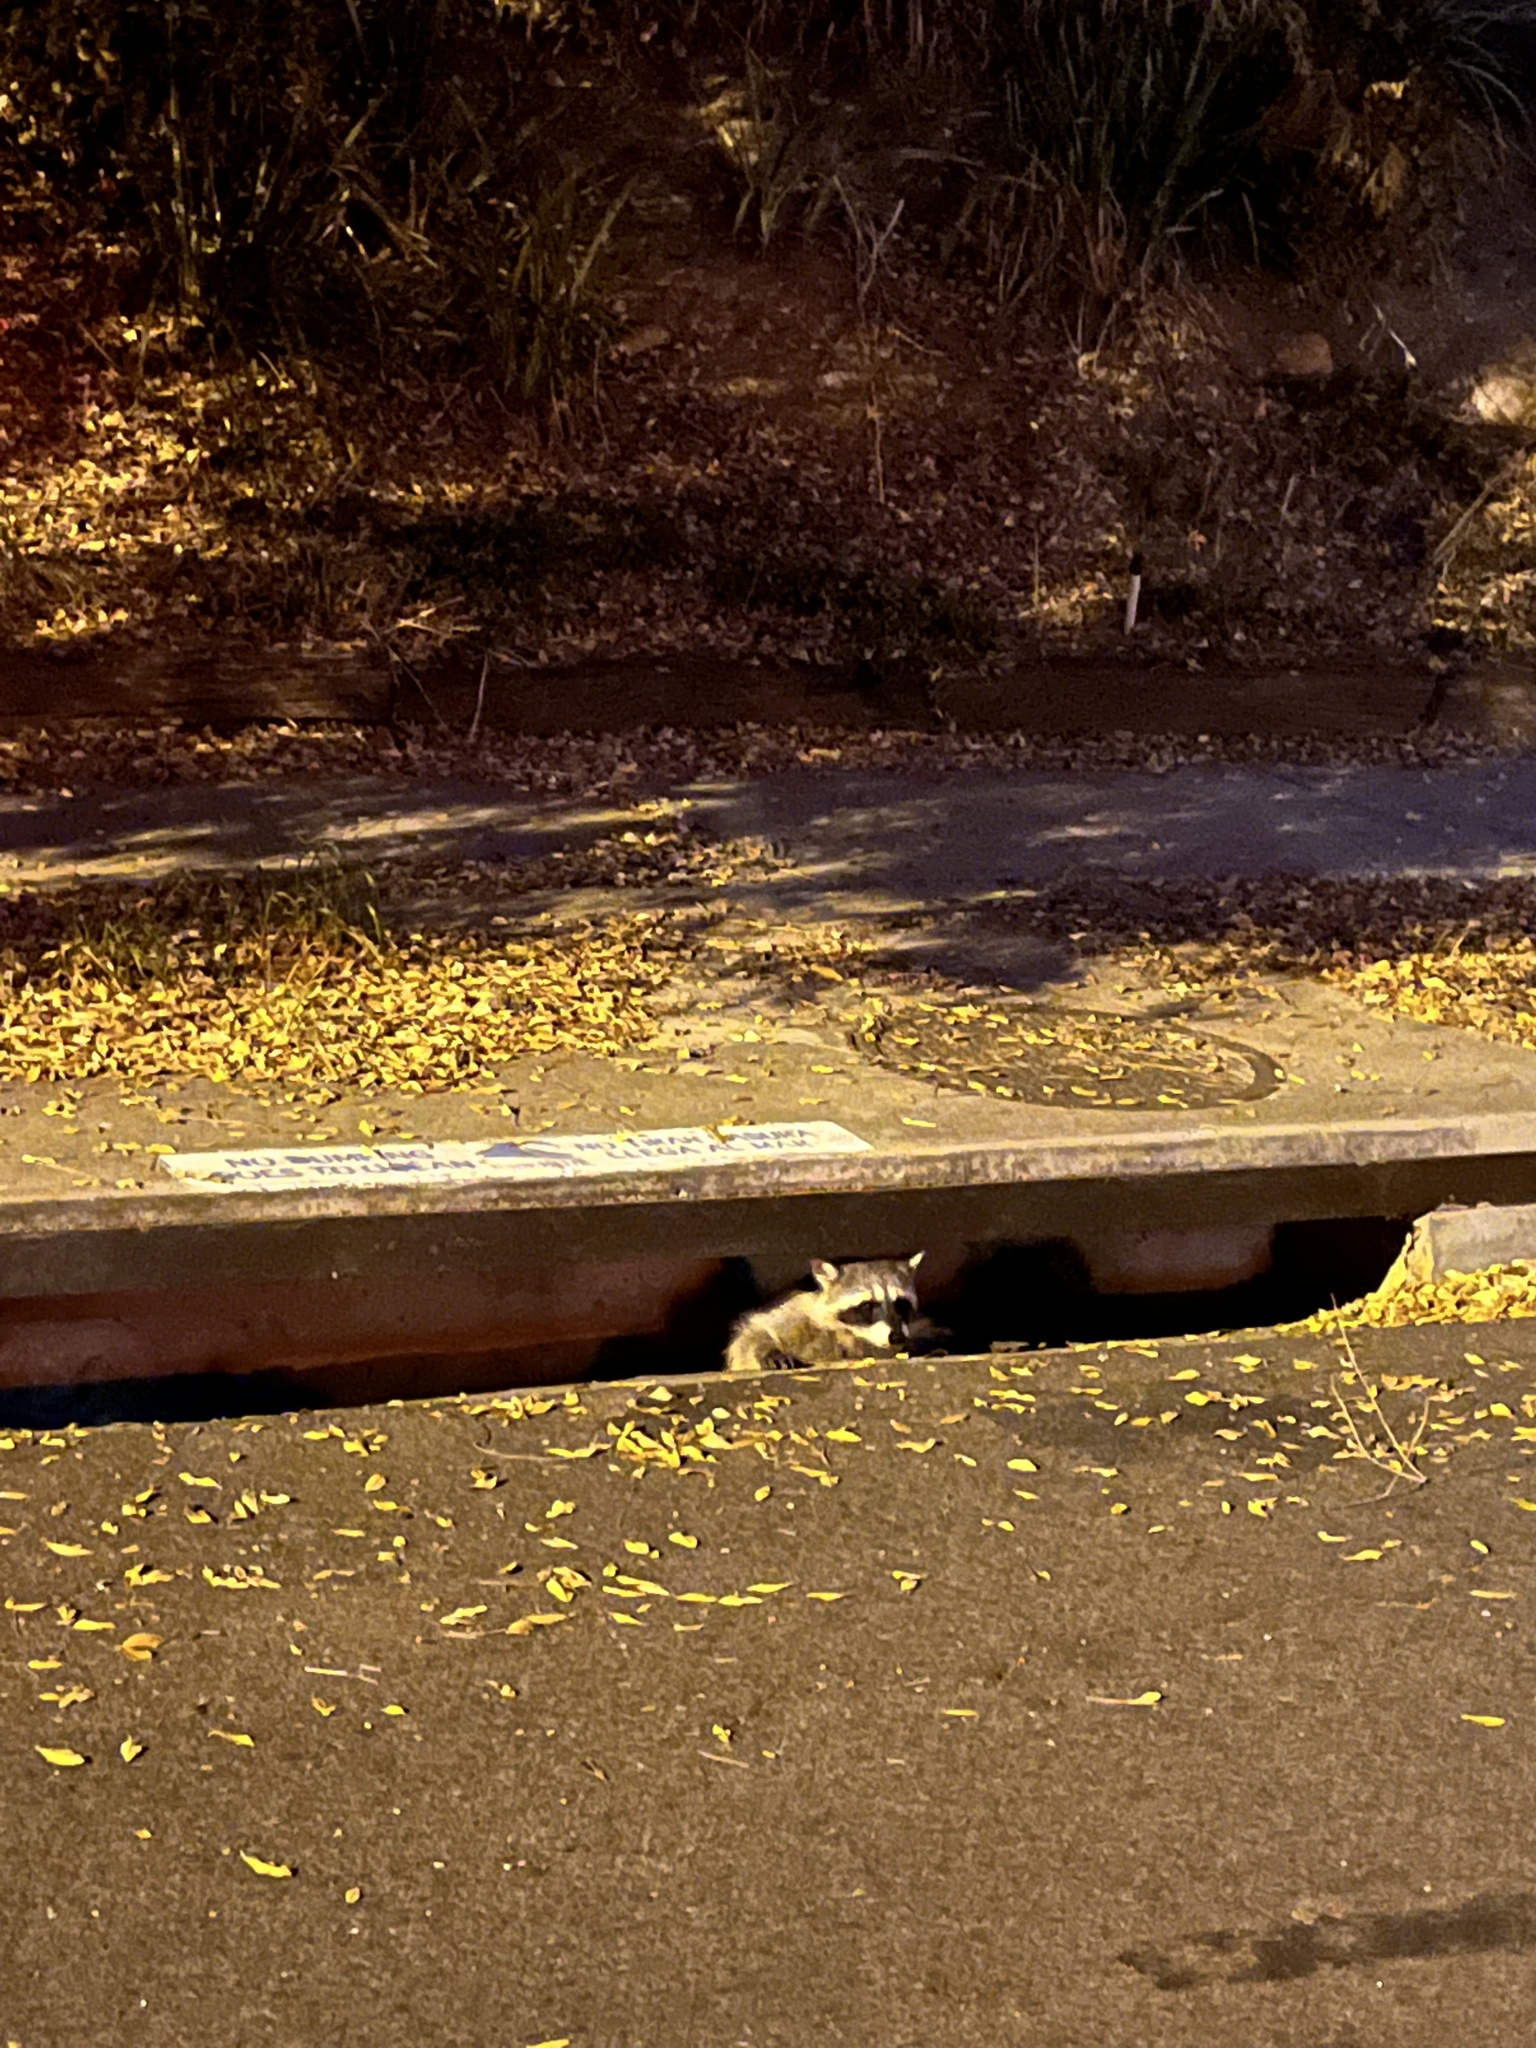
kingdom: Animalia
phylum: Chordata
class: Mammalia
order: Carnivora
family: Procyonidae
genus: Procyon
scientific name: Procyon lotor
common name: Raccoon
